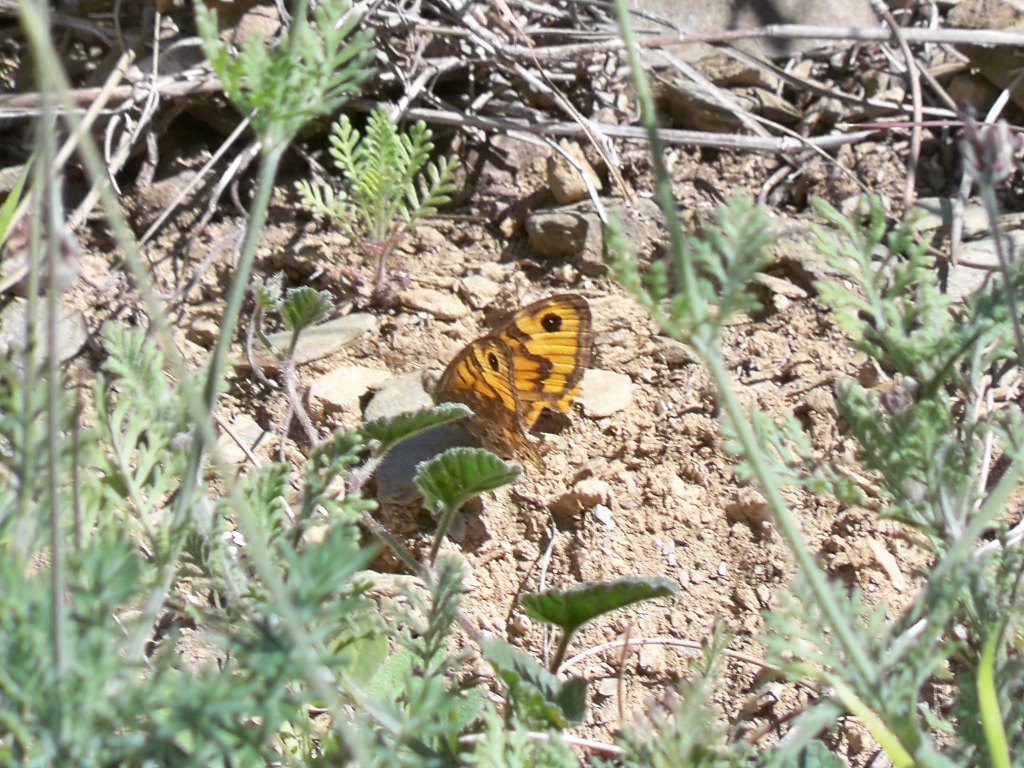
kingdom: Animalia
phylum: Arthropoda
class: Insecta
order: Lepidoptera
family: Nymphalidae
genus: Pararge
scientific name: Pararge Lasiommata megera
